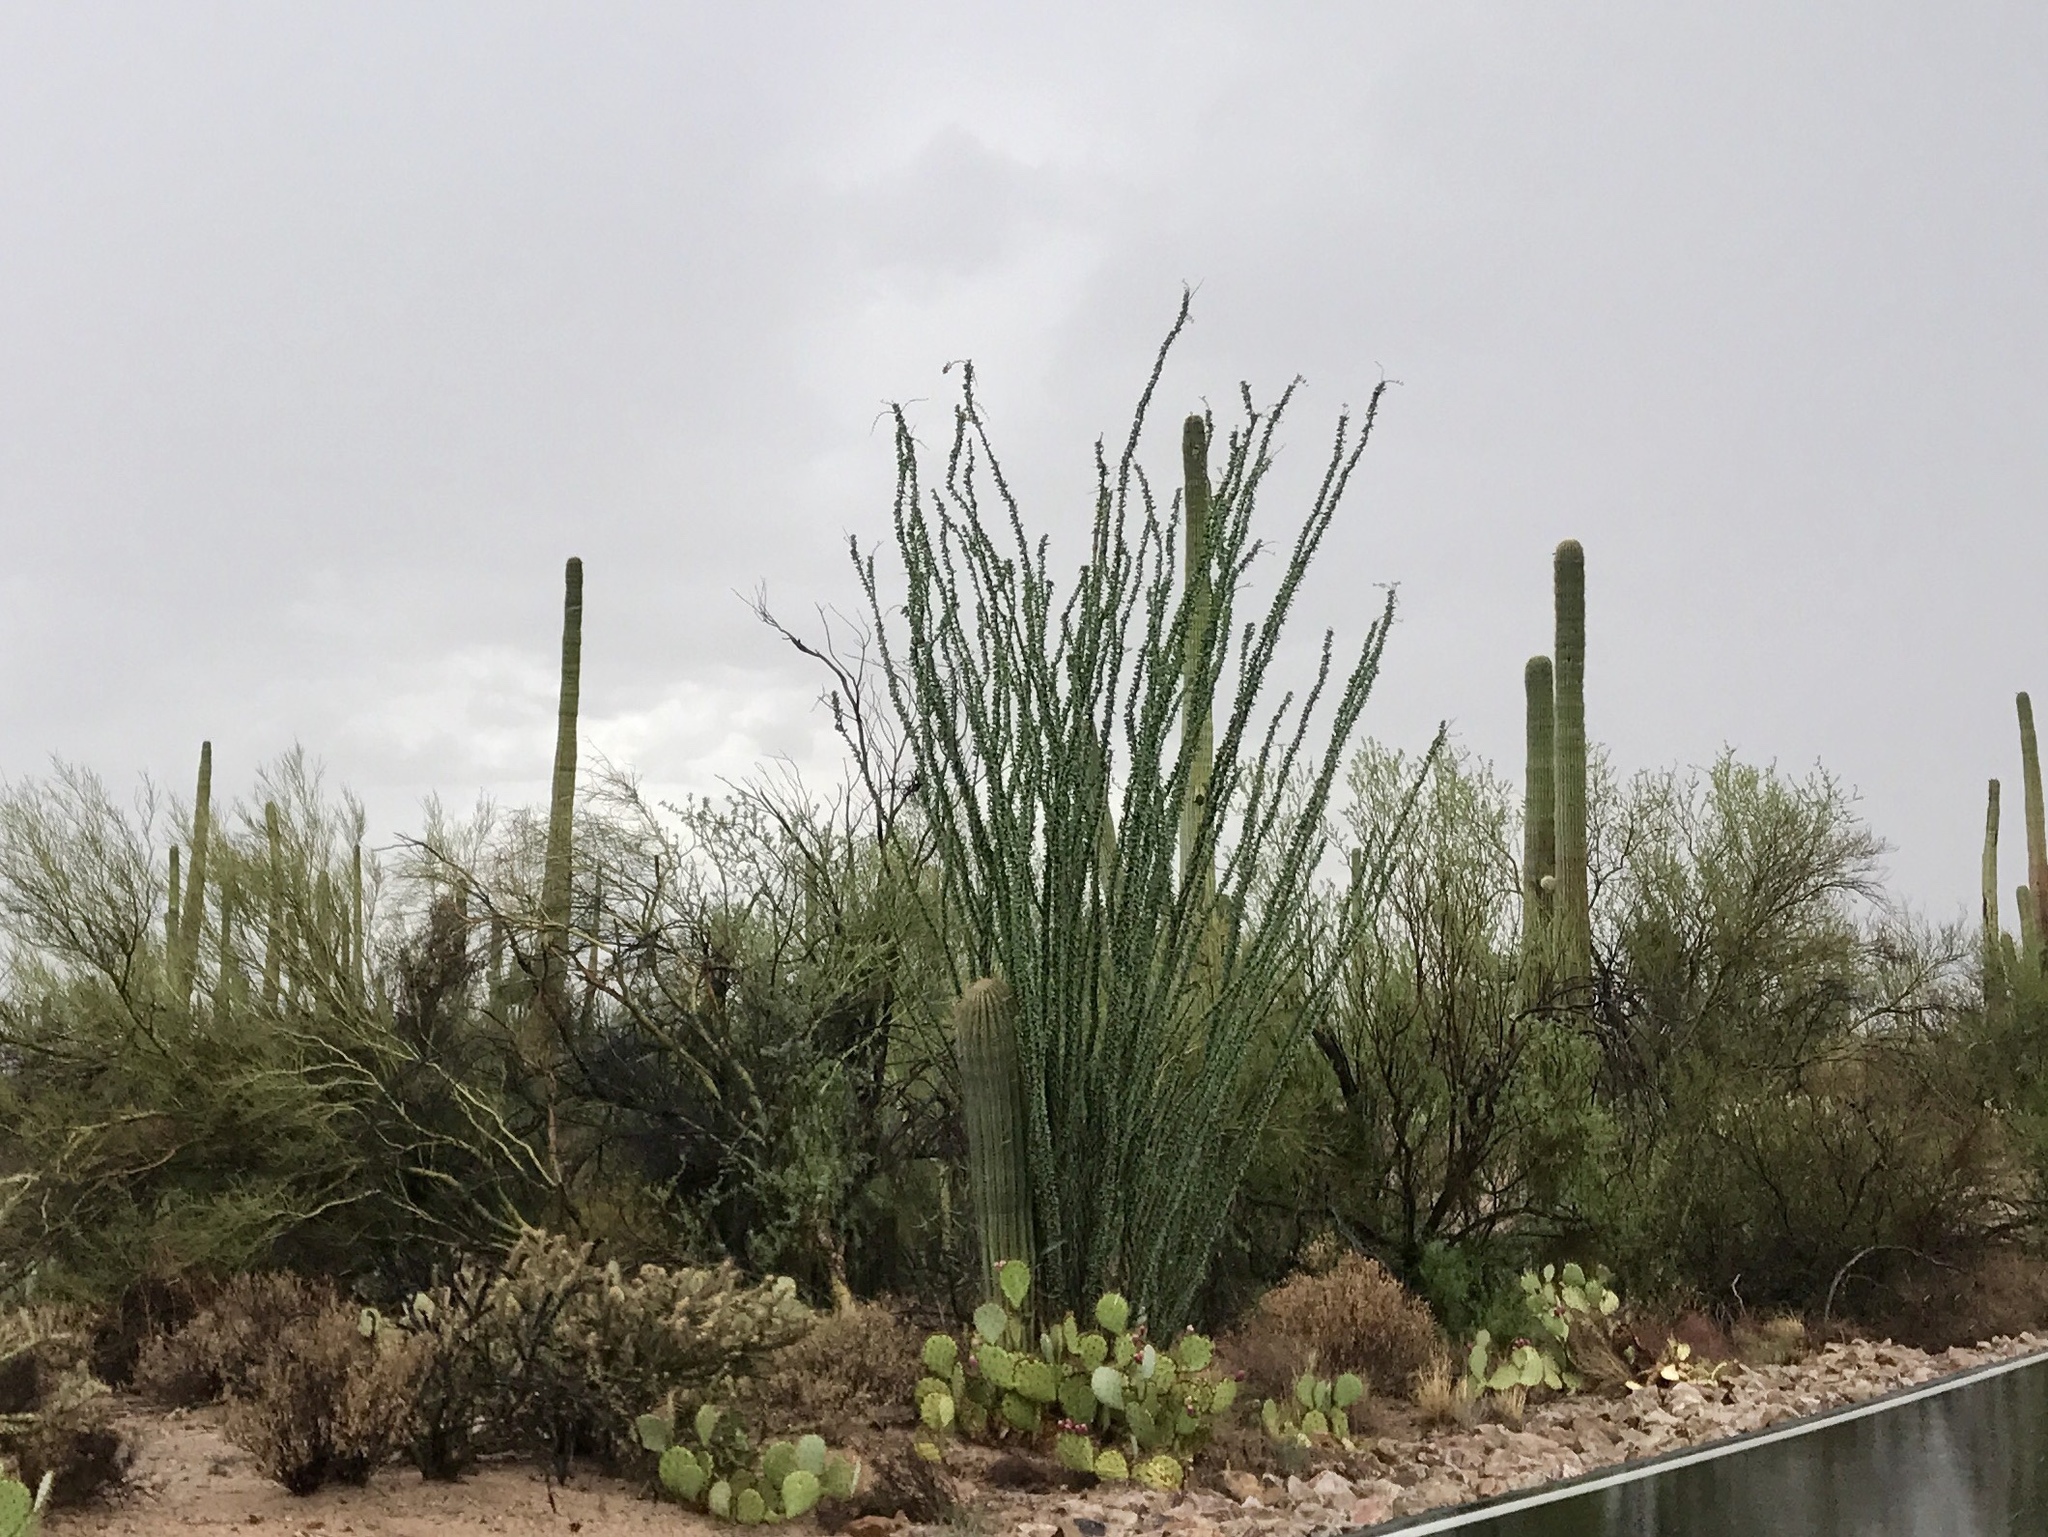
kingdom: Plantae
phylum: Tracheophyta
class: Magnoliopsida
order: Ericales
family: Fouquieriaceae
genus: Fouquieria
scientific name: Fouquieria splendens
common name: Vine-cactus
